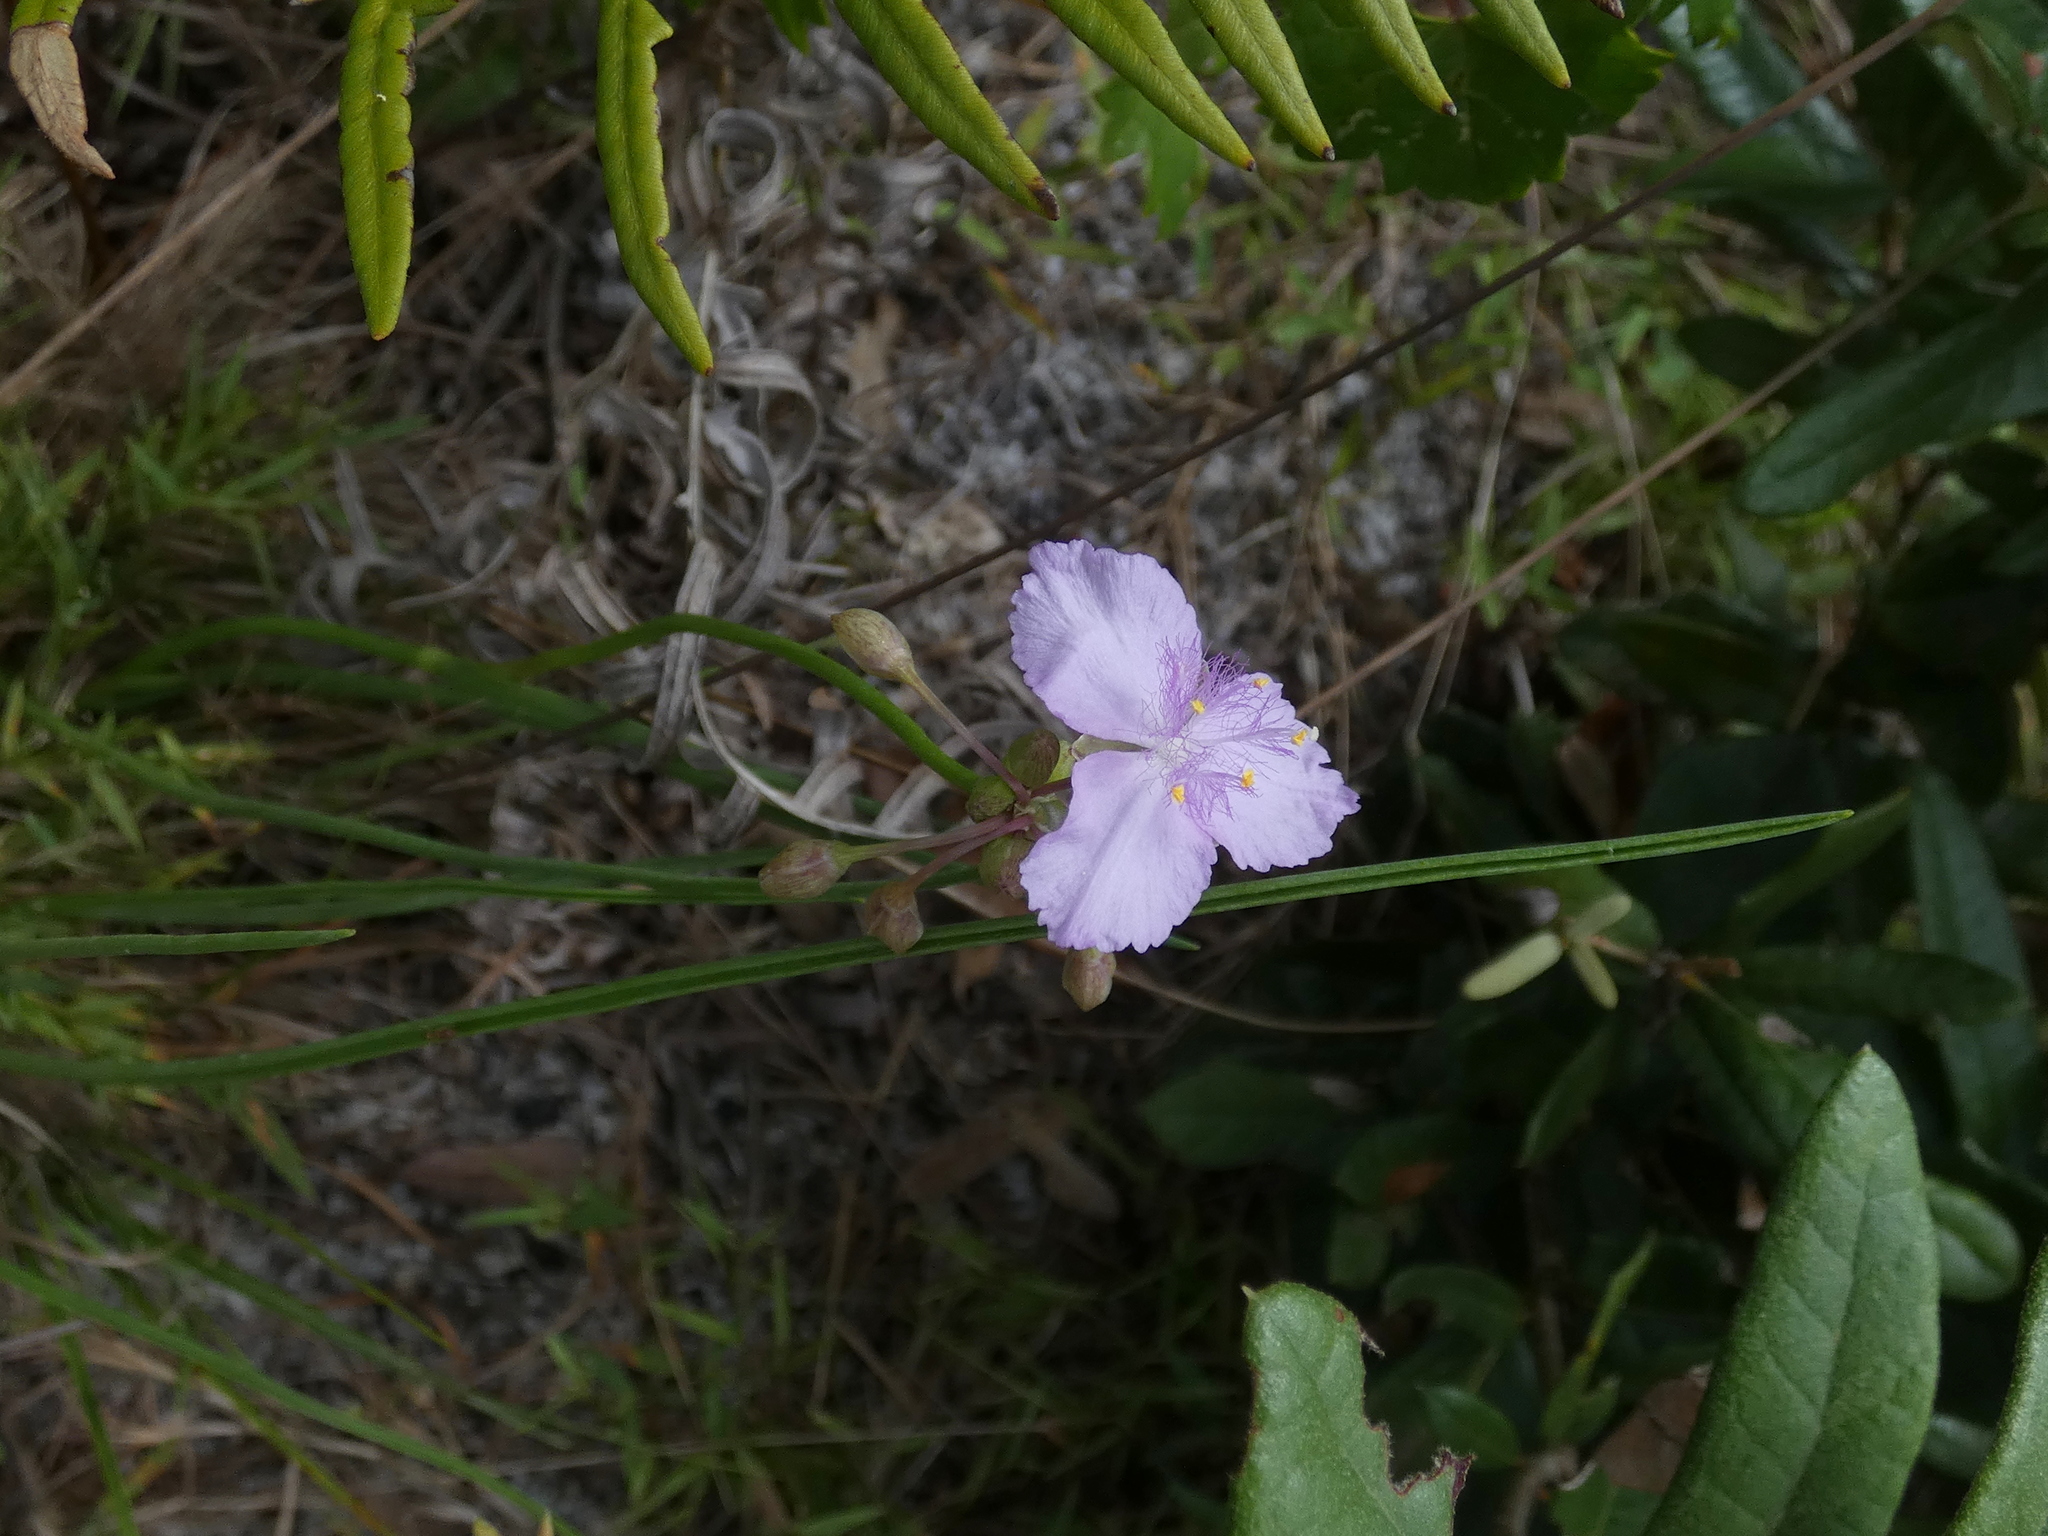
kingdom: Plantae
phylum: Tracheophyta
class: Liliopsida
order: Commelinales
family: Commelinaceae
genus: Callisia
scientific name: Callisia ornata
